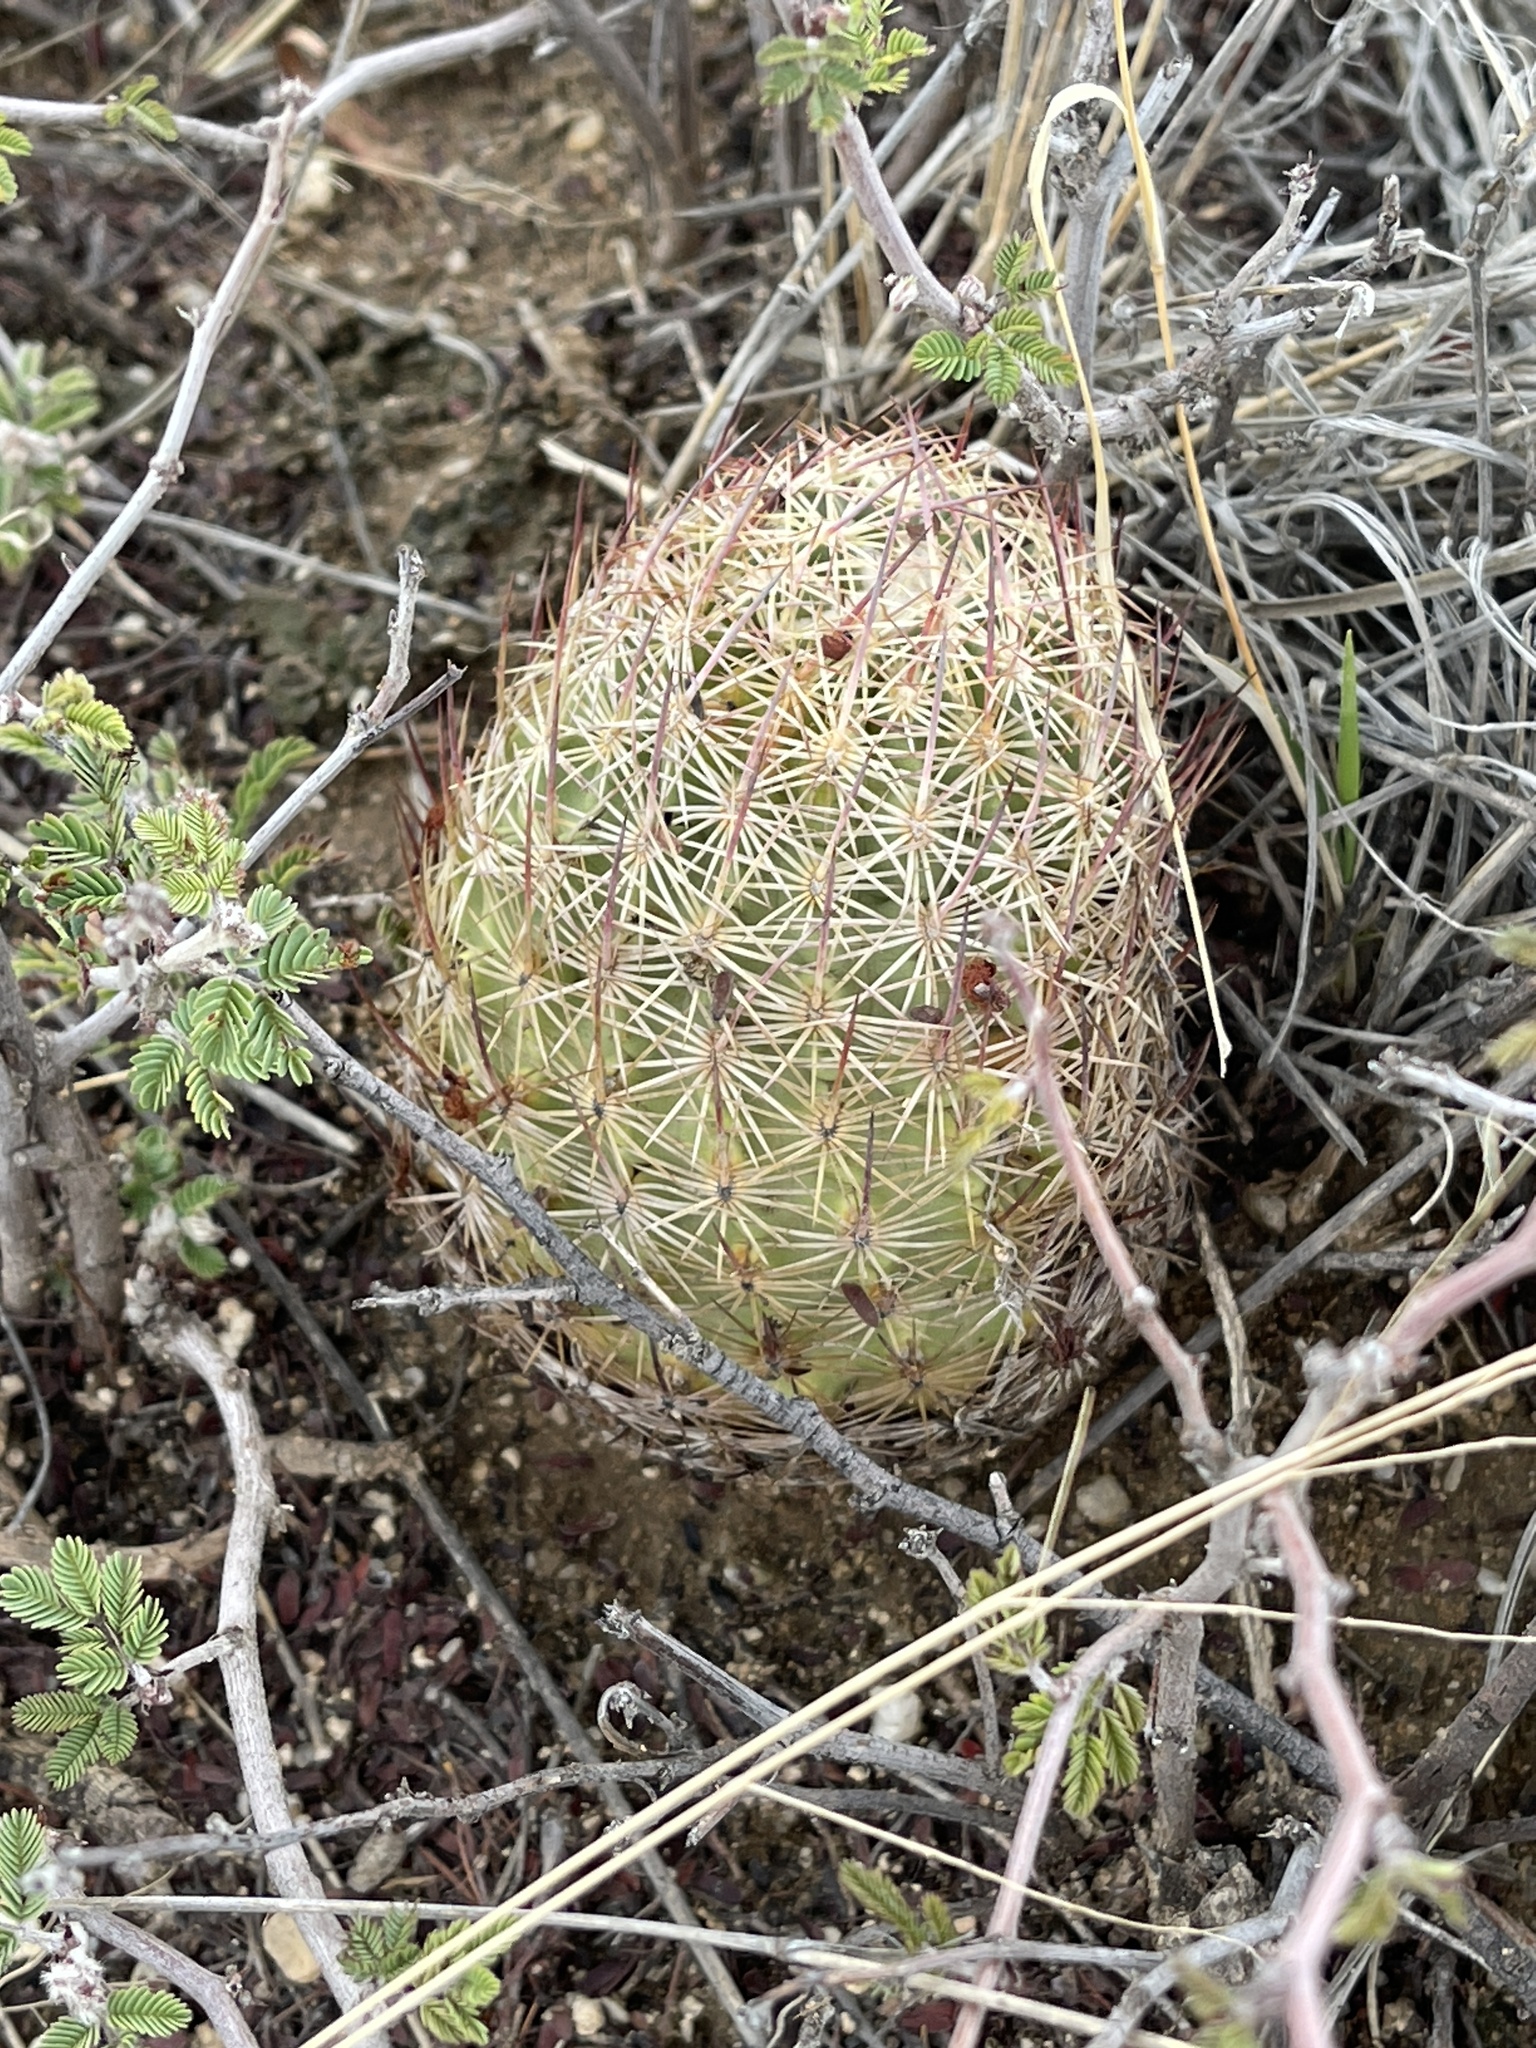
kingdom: Plantae
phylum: Tracheophyta
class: Magnoliopsida
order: Caryophyllales
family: Cactaceae
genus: Sclerocactus
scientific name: Sclerocactus johnsonii
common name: Eight-spine fishhook cactus
